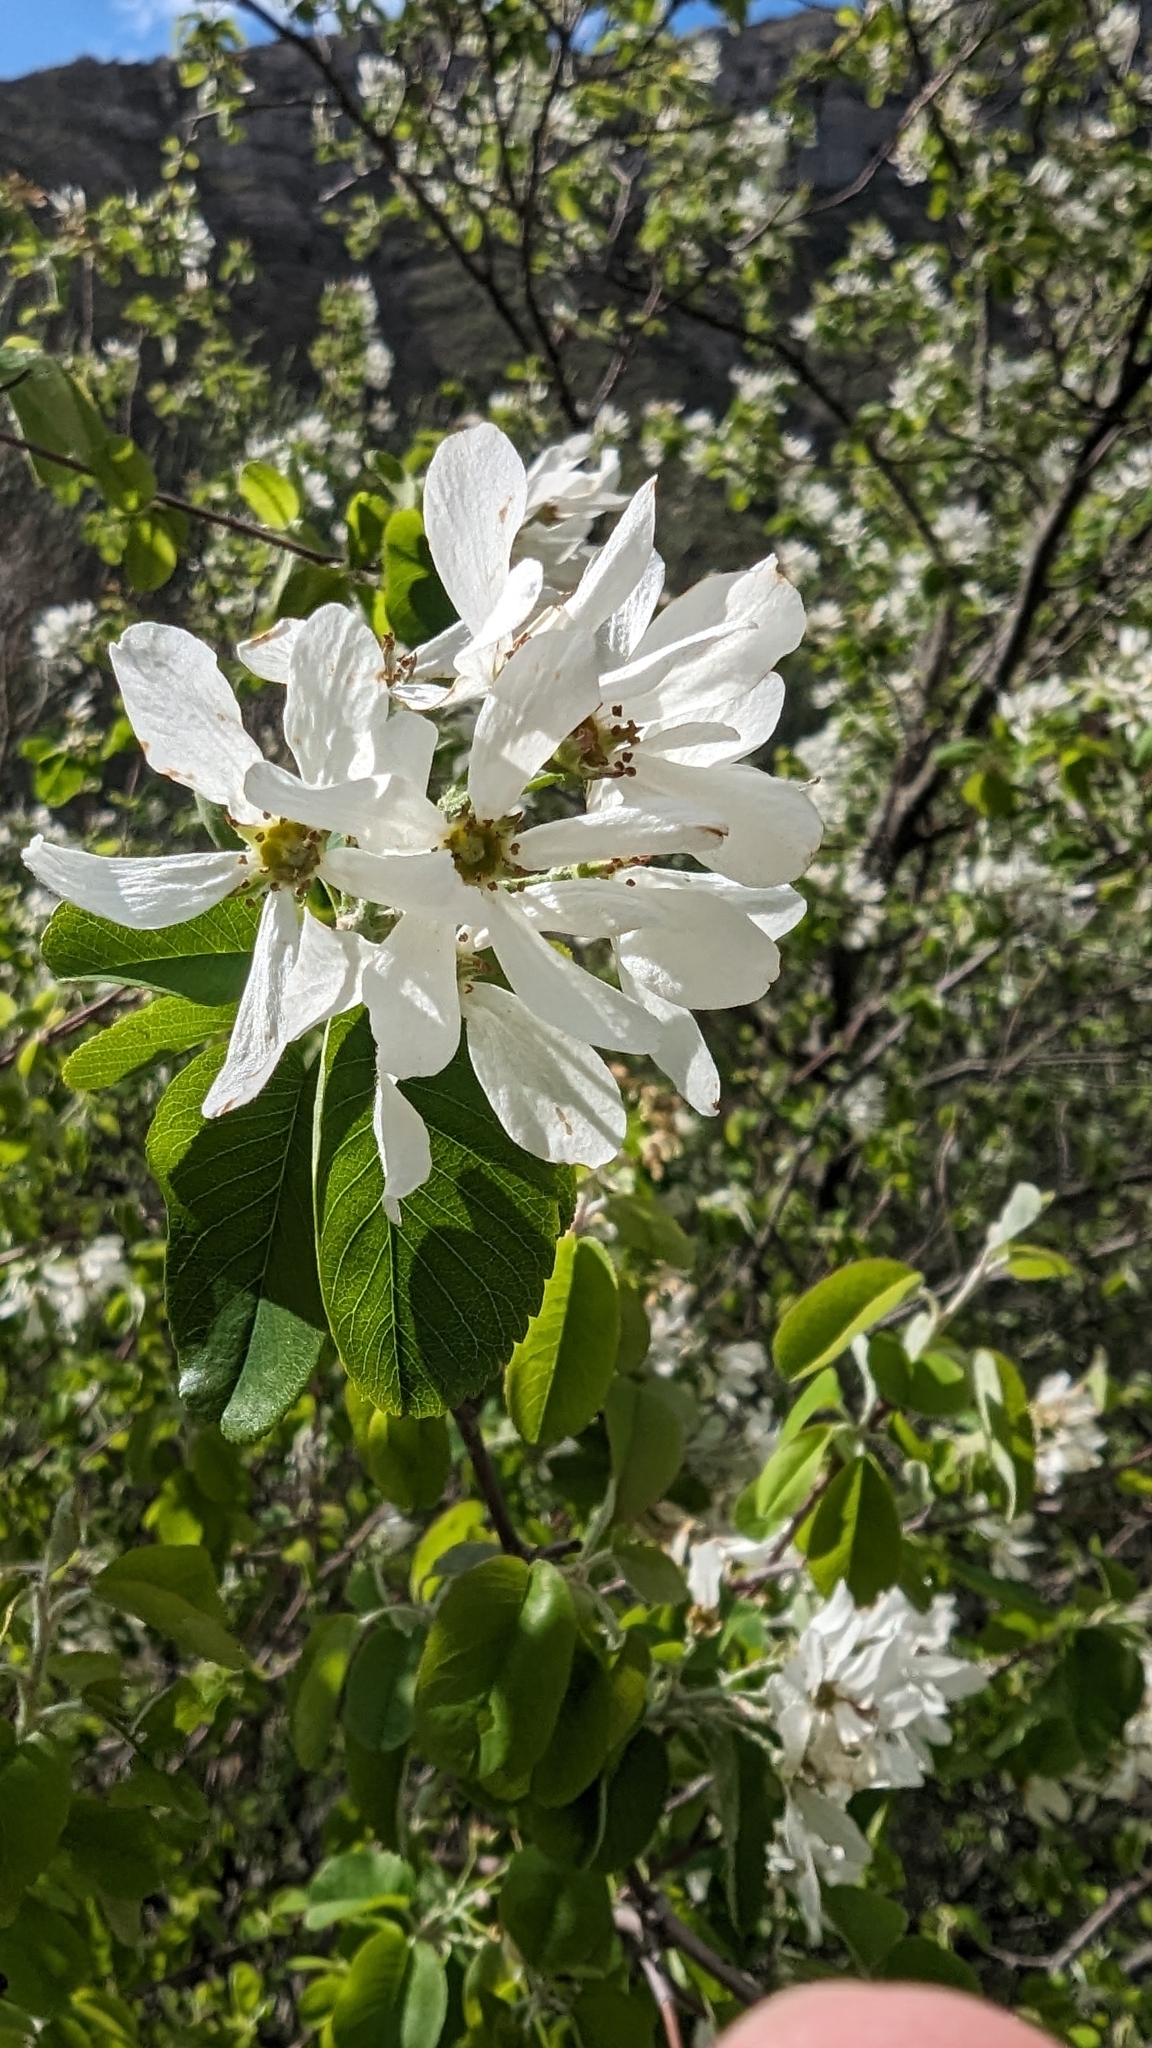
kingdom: Plantae
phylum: Tracheophyta
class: Magnoliopsida
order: Rosales
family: Rosaceae
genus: Amelanchier
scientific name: Amelanchier ovalis
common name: Serviceberry
